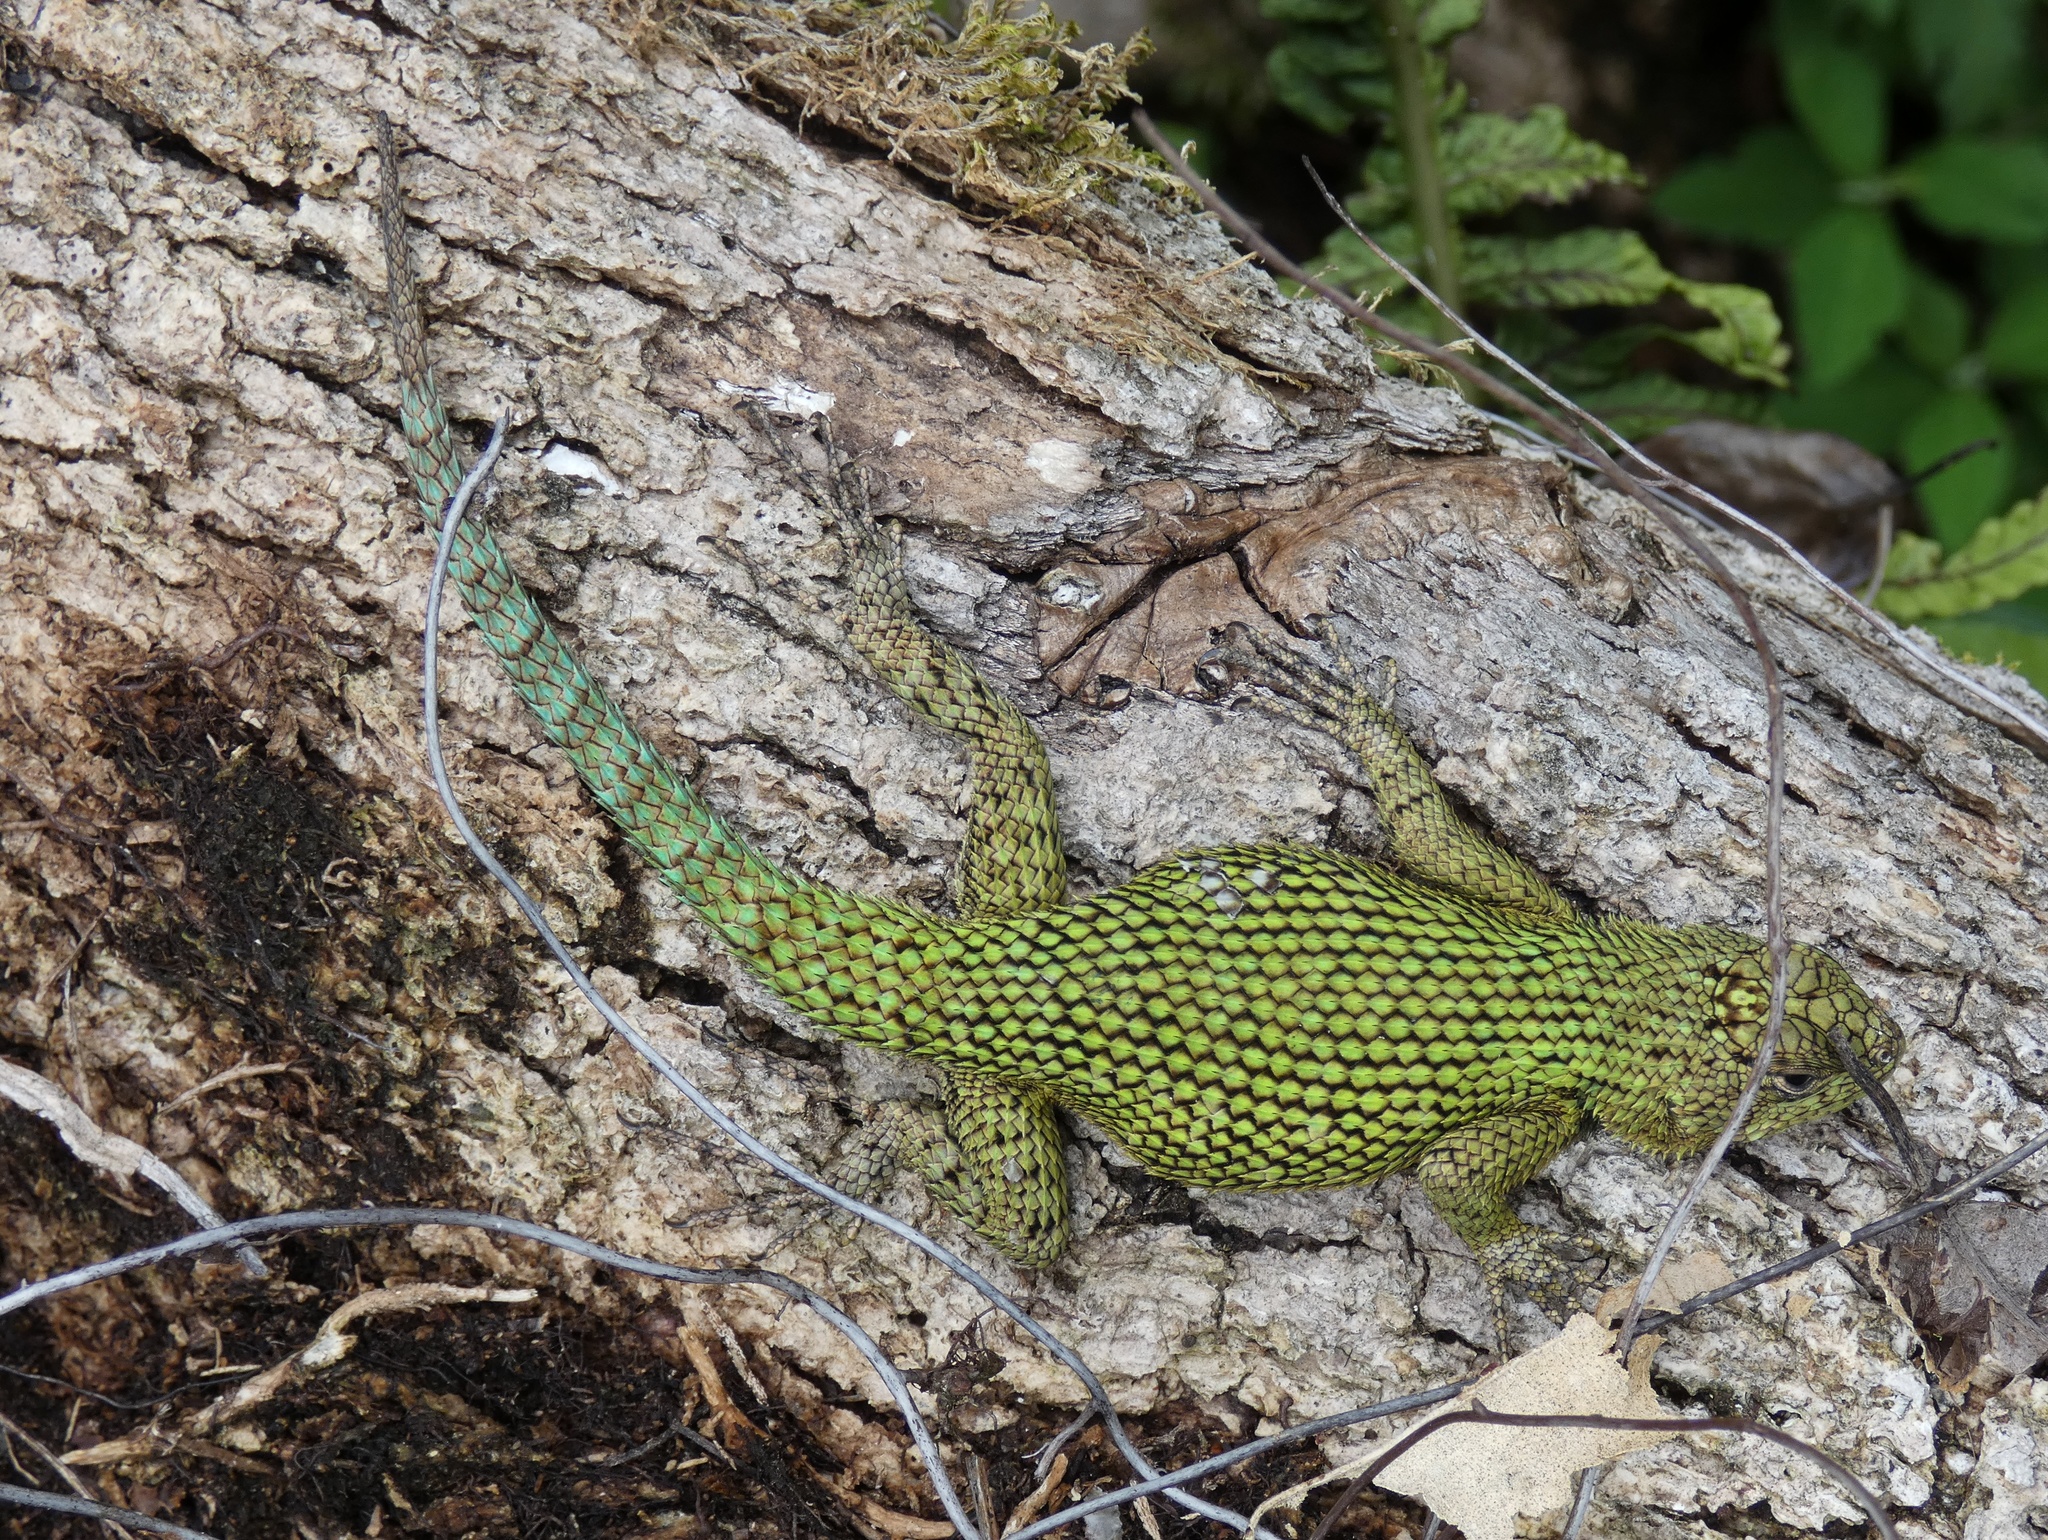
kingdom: Animalia
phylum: Chordata
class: Squamata
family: Phrynosomatidae
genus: Sceloporus
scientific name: Sceloporus malachiticus
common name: Green spiny lizard
